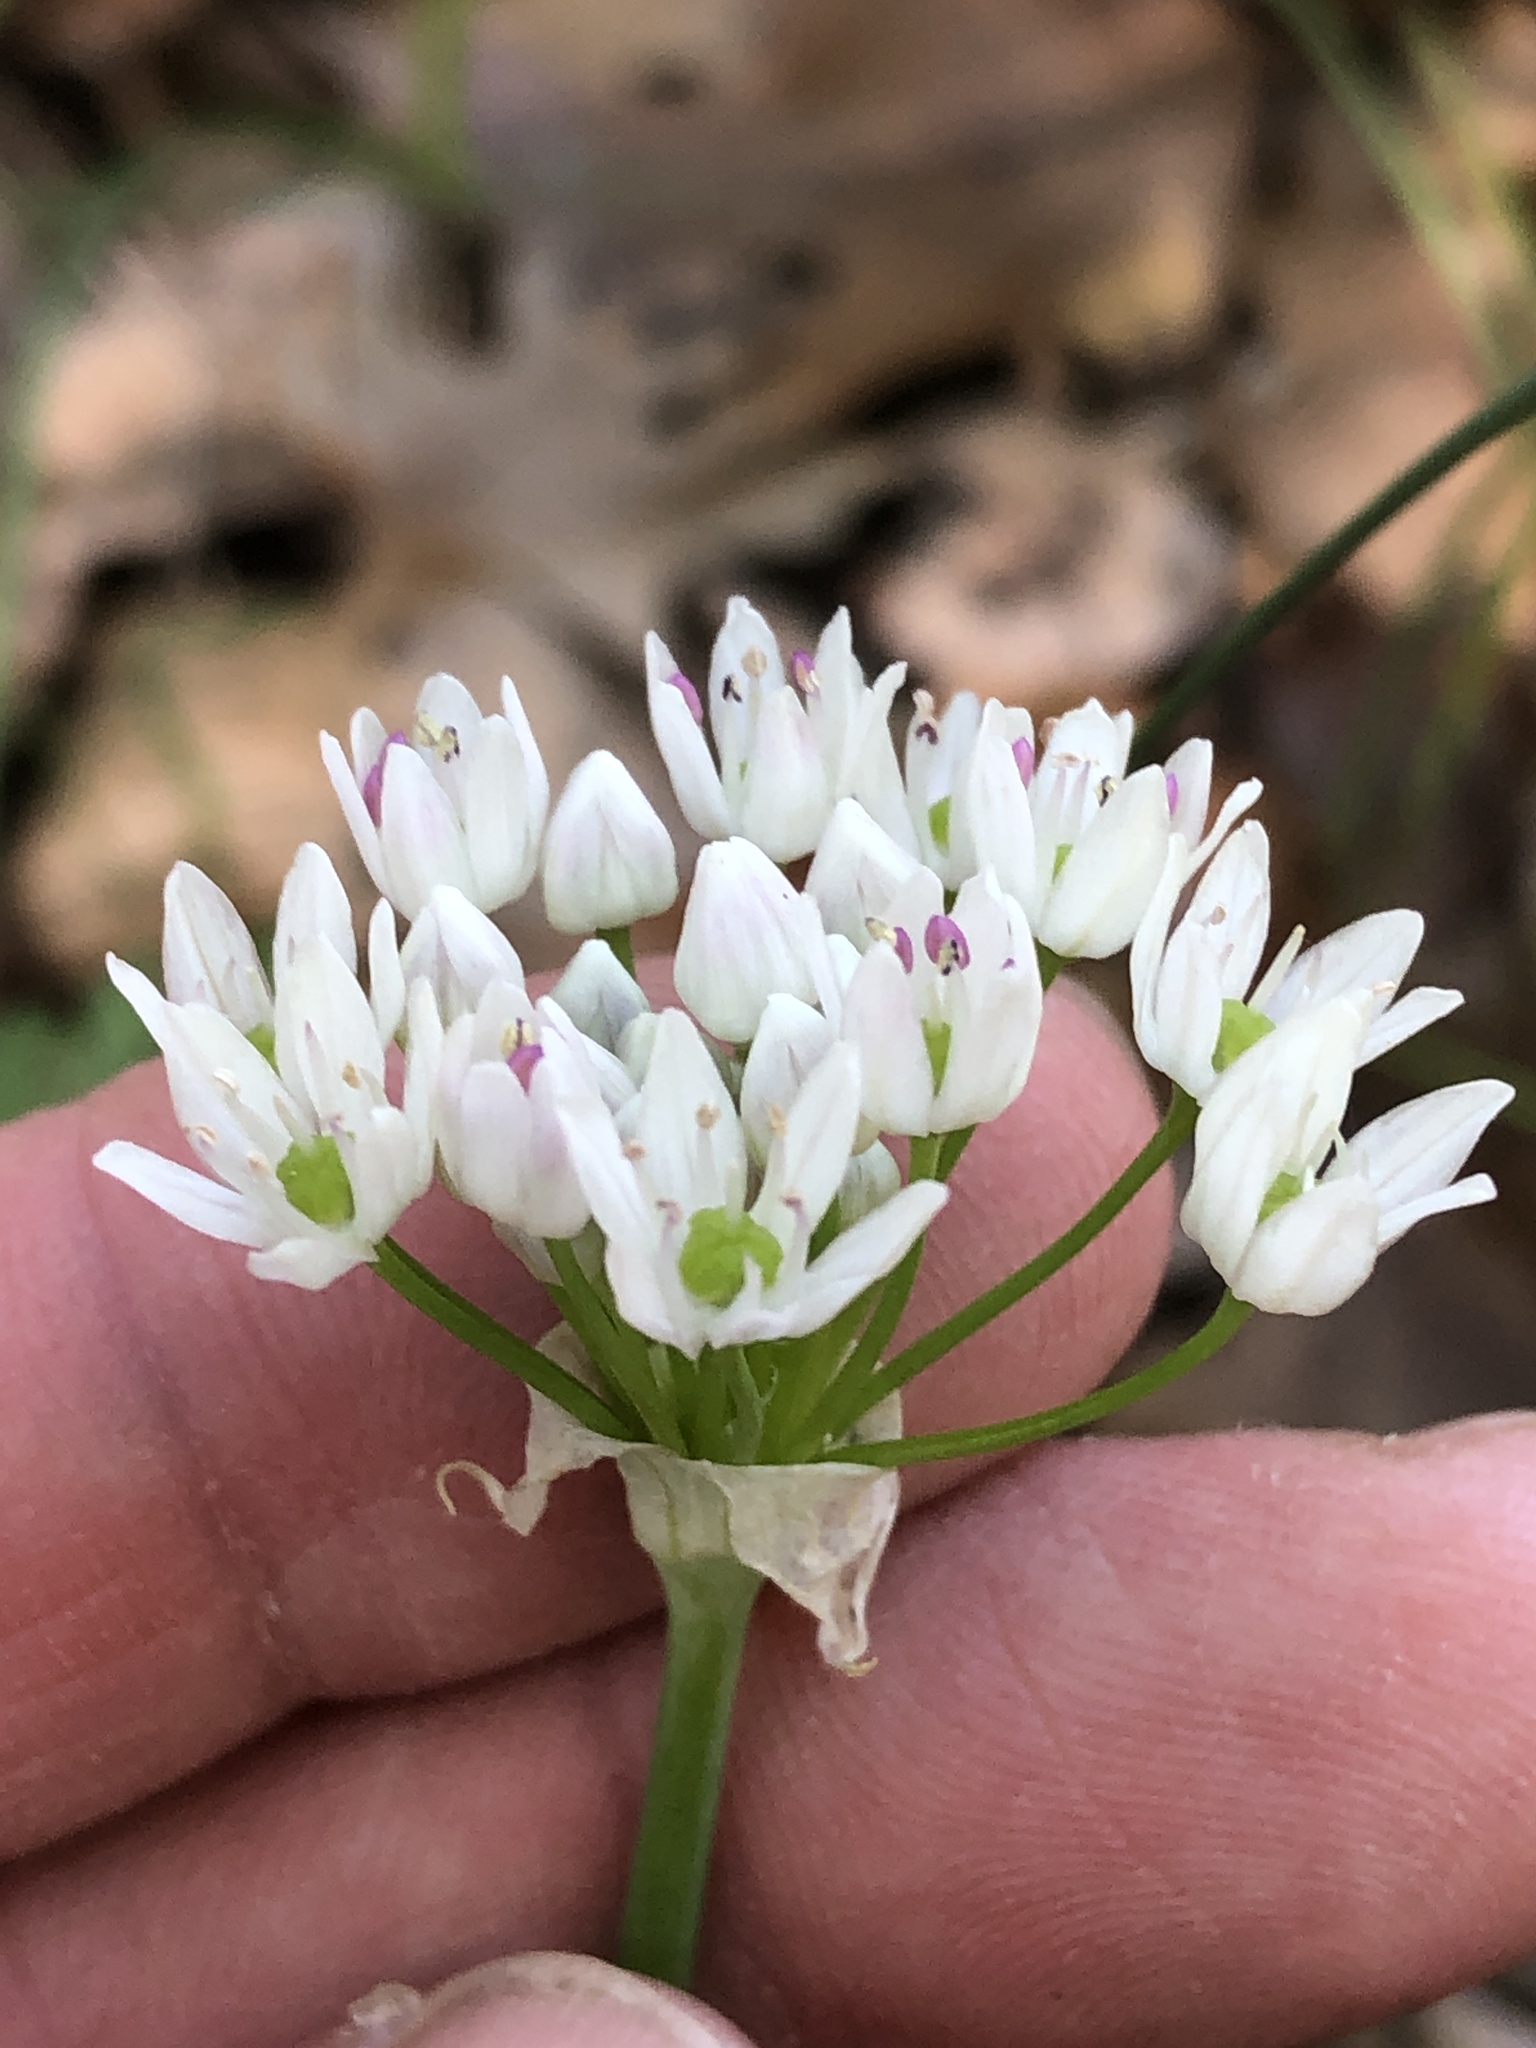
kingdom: Plantae
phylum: Tracheophyta
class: Liliopsida
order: Asparagales
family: Amaryllidaceae
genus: Allium
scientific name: Allium fraseri
